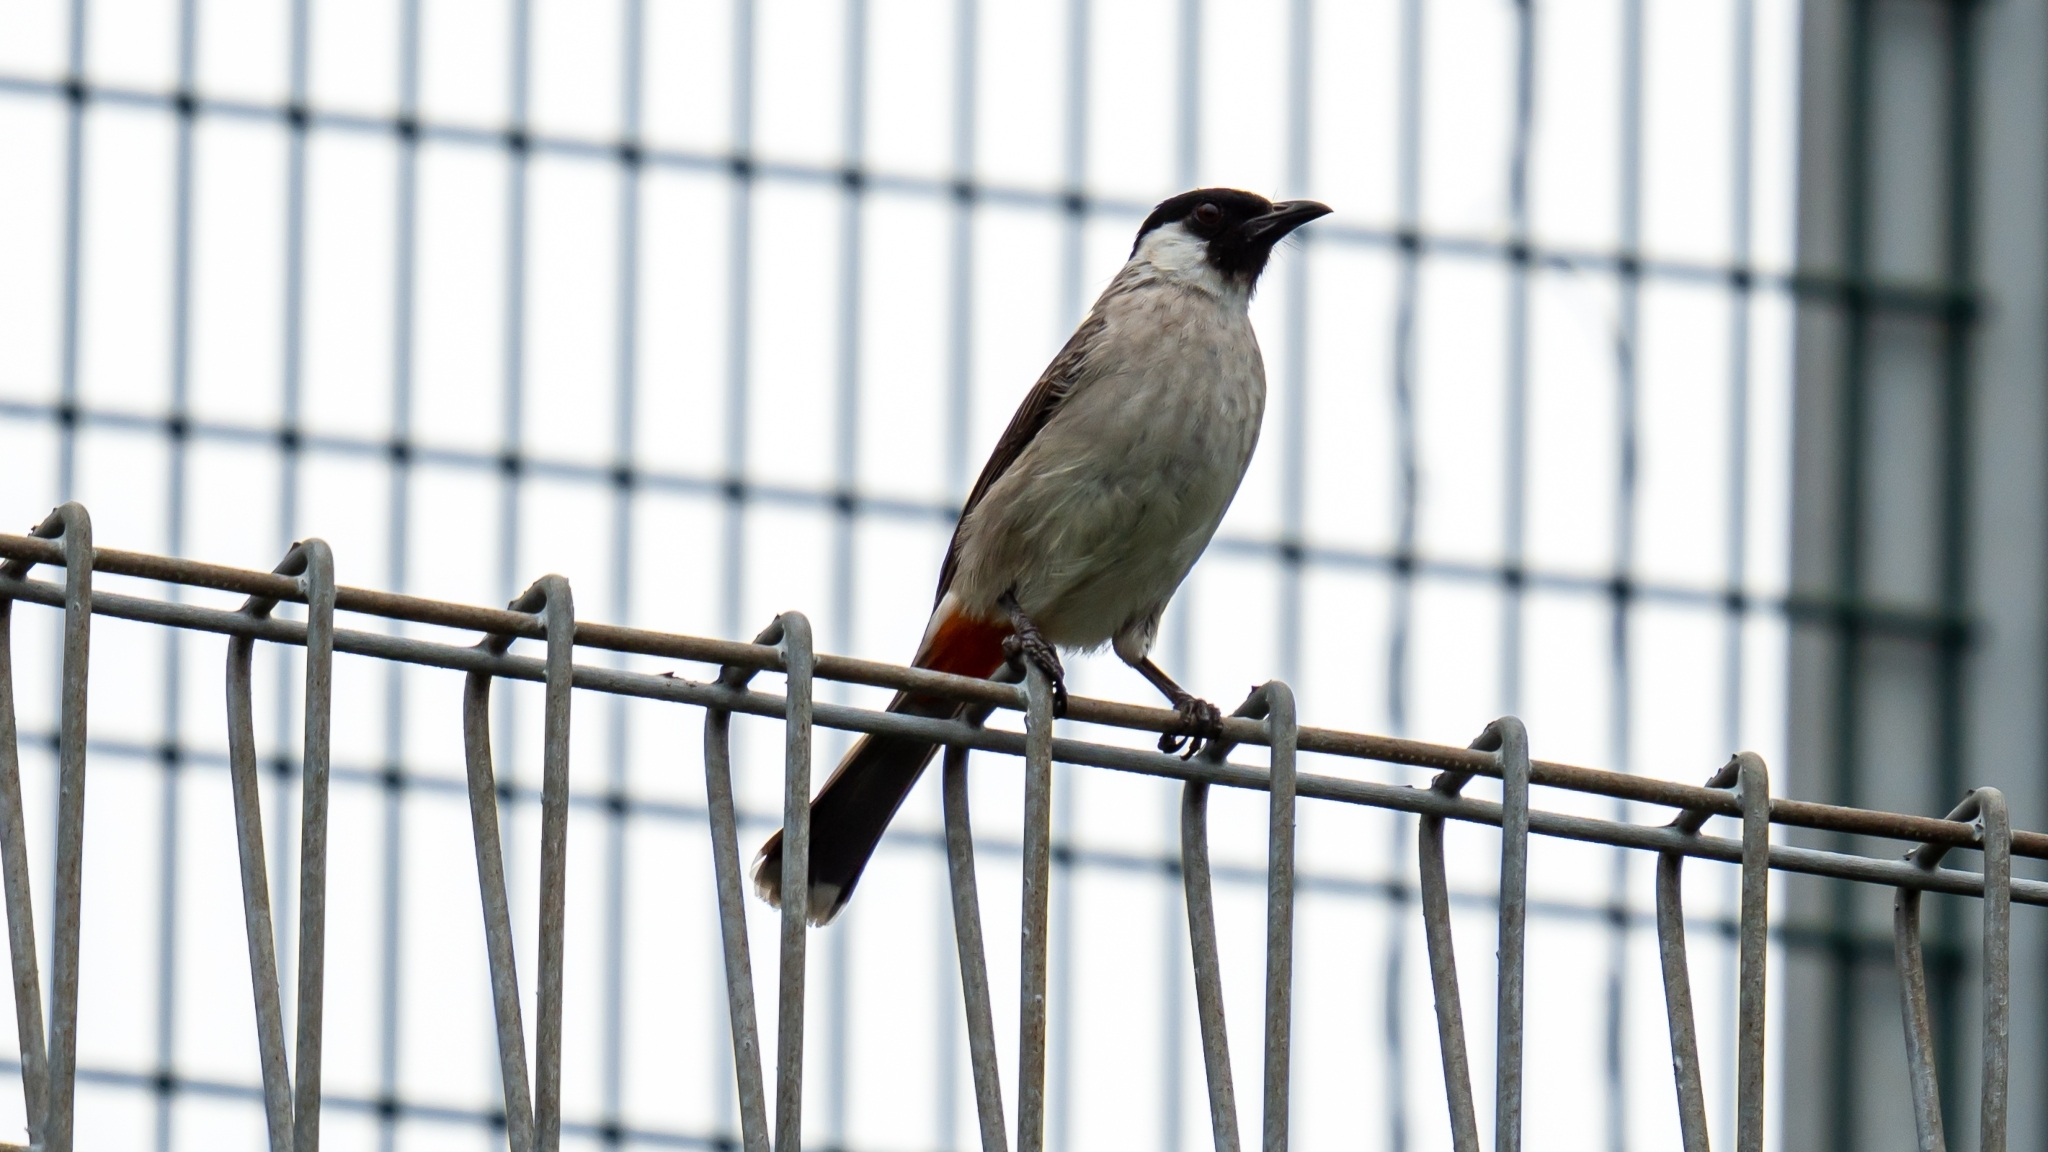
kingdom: Animalia
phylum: Chordata
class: Aves
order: Passeriformes
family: Pycnonotidae
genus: Pycnonotus
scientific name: Pycnonotus aurigaster
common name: Sooty-headed bulbul
